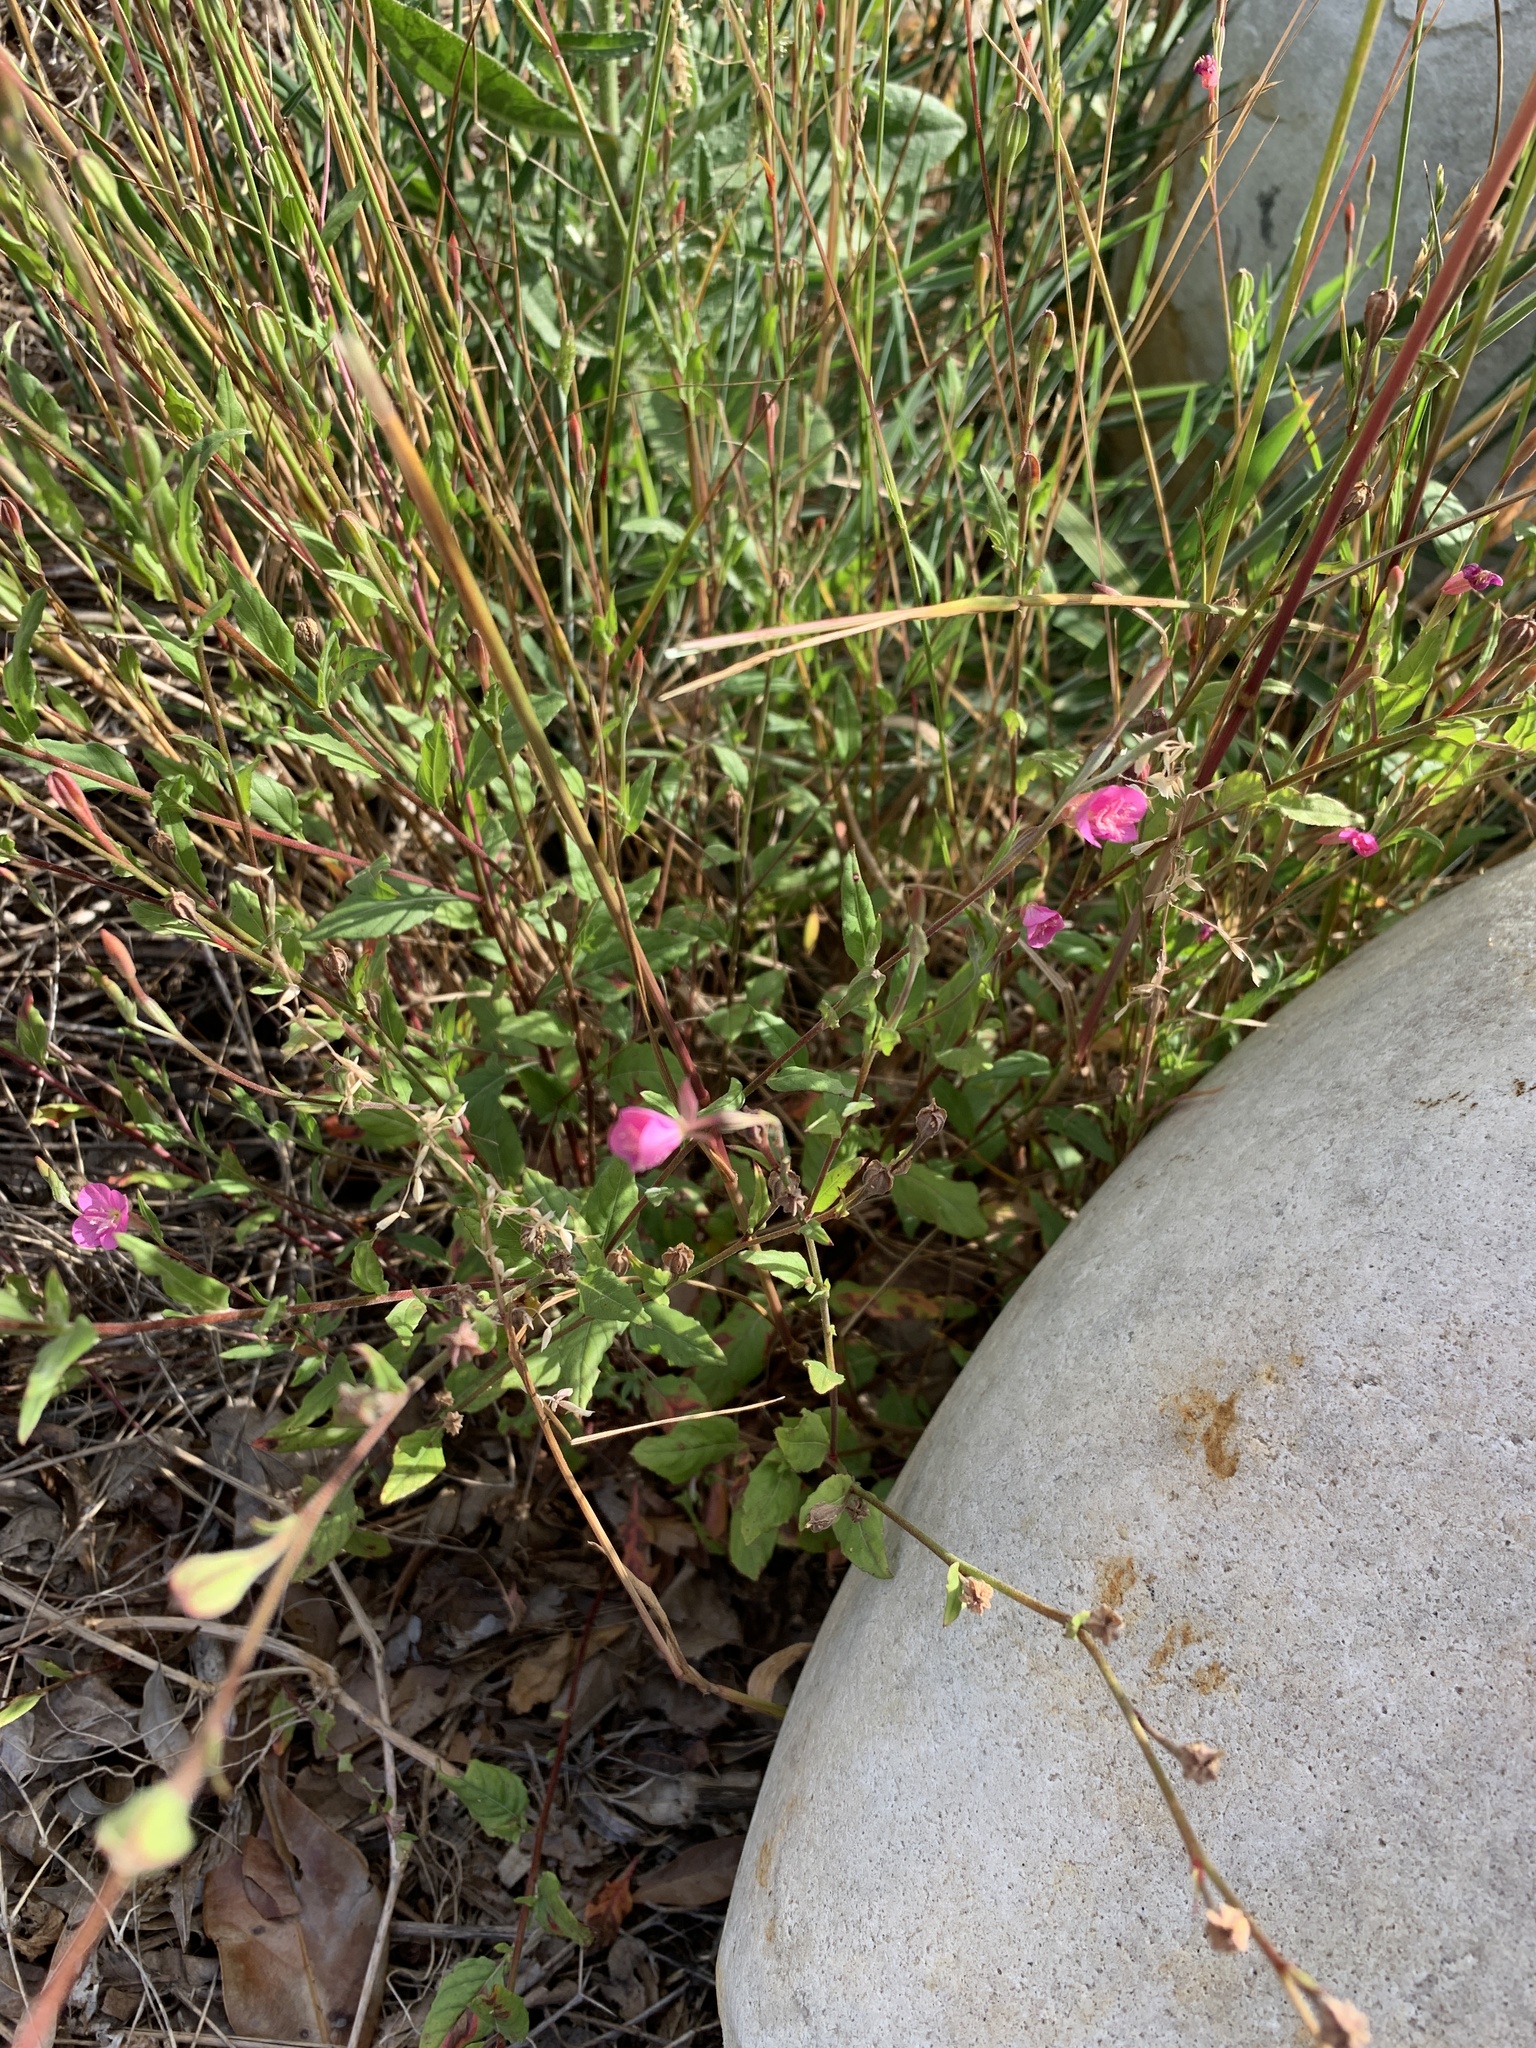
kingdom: Plantae
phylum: Tracheophyta
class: Magnoliopsida
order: Myrtales
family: Onagraceae
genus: Oenothera
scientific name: Oenothera rosea
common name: Rosy evening-primrose
